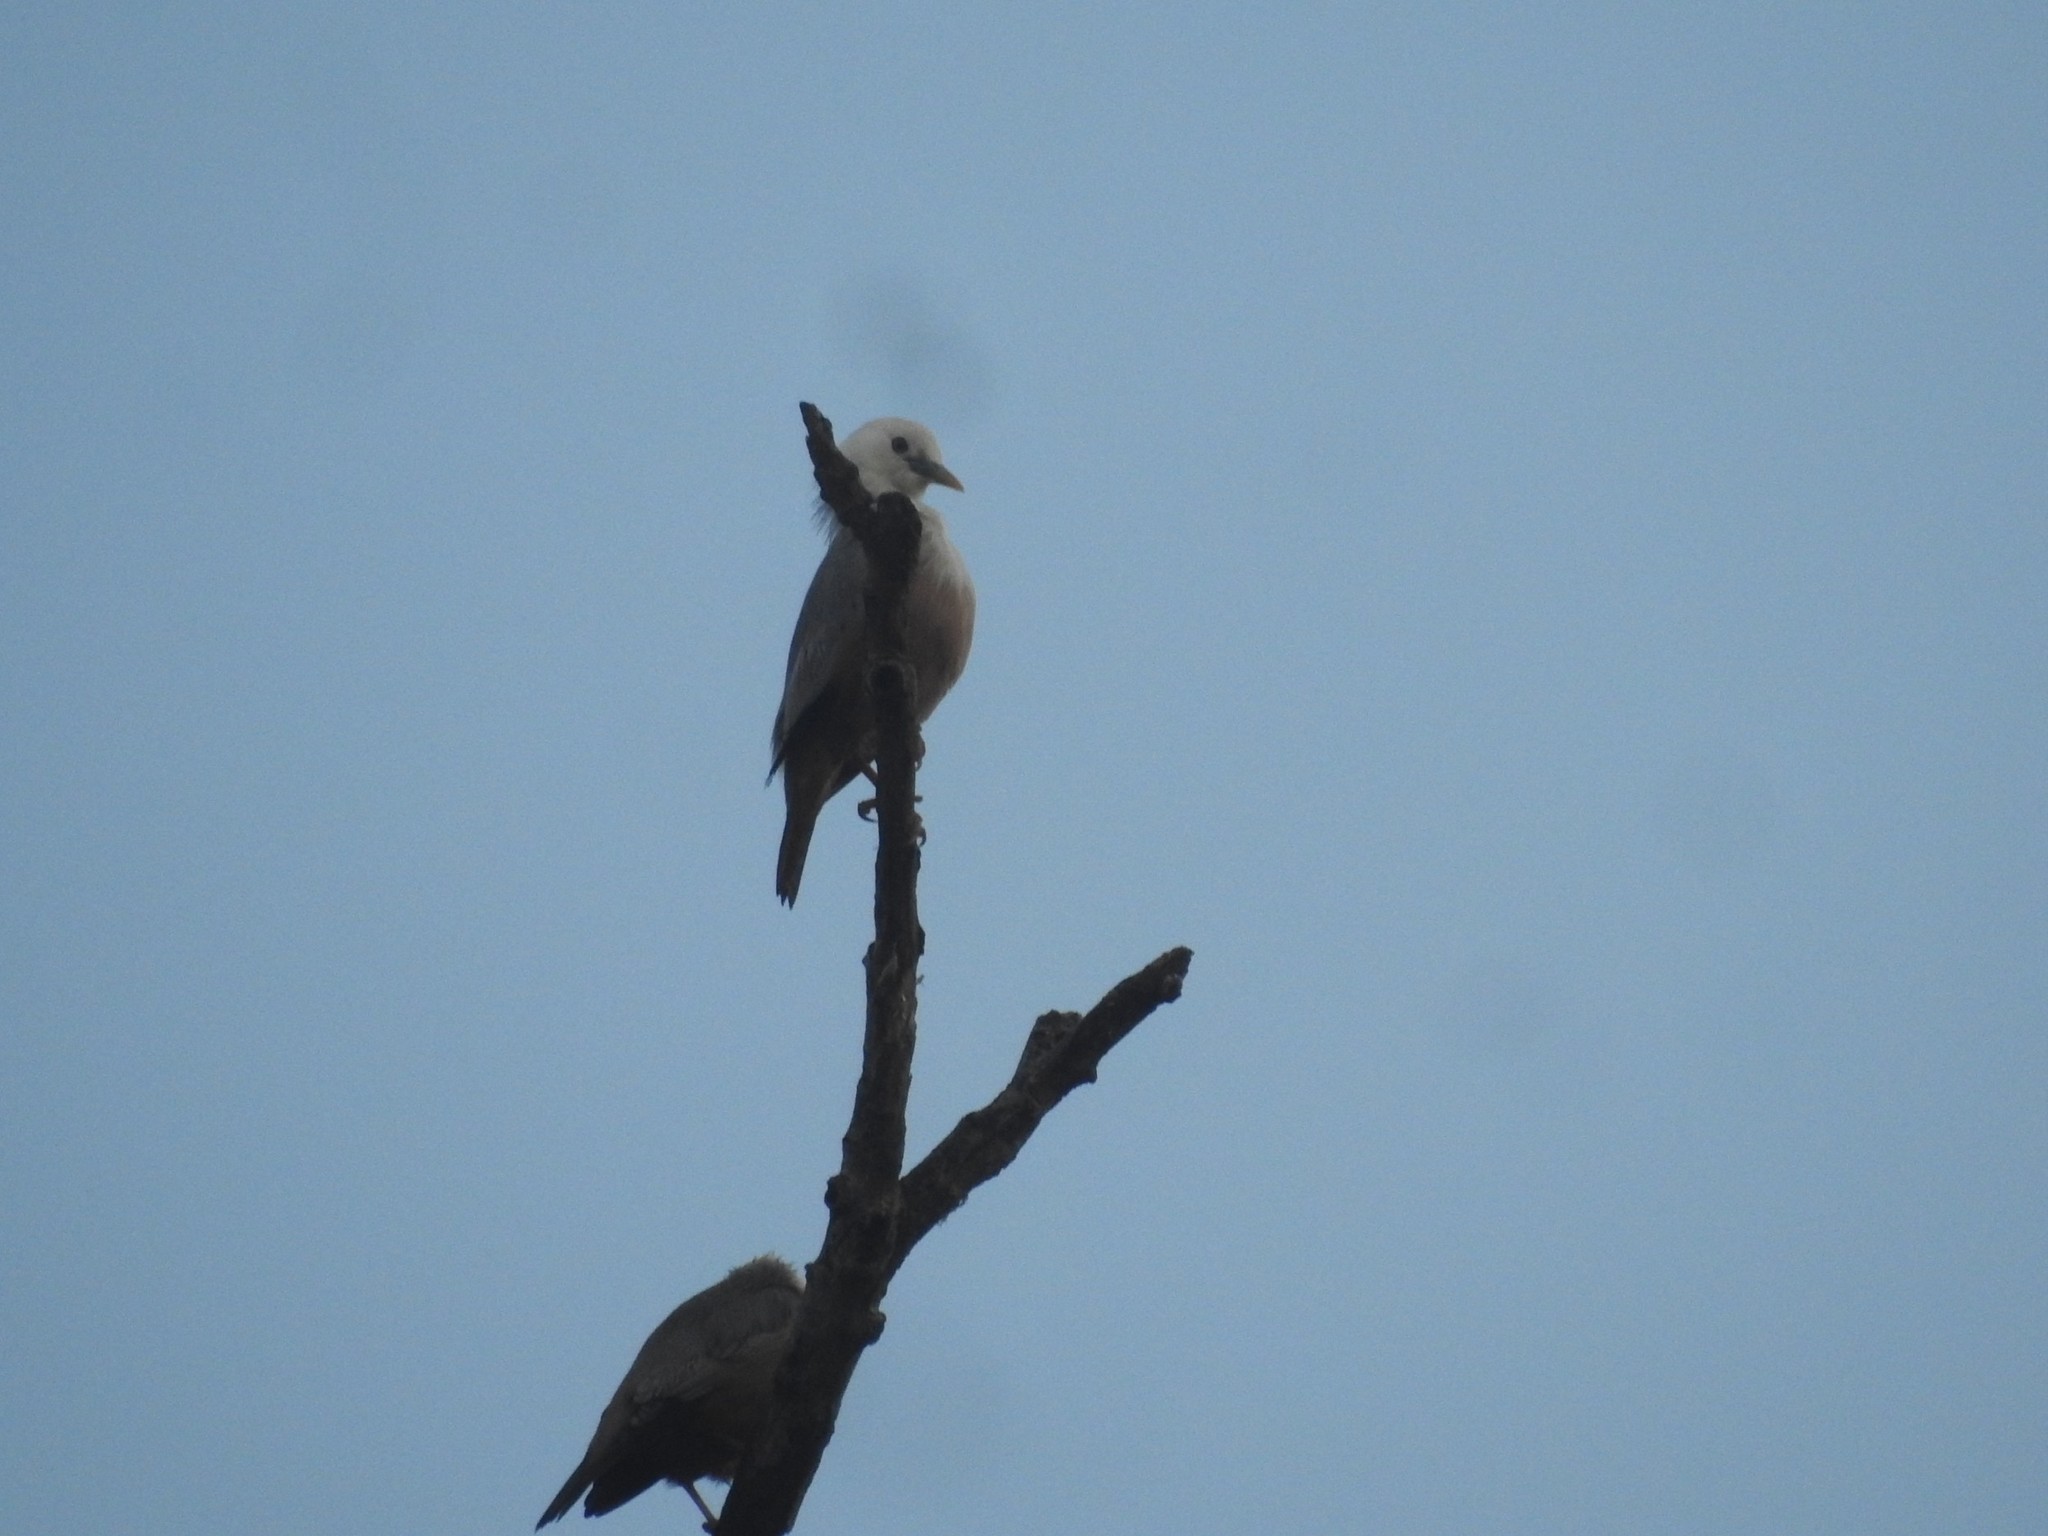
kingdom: Animalia
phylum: Chordata
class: Aves
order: Passeriformes
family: Sturnidae
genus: Sturnia
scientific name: Sturnia blythii
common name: Malabar starling
